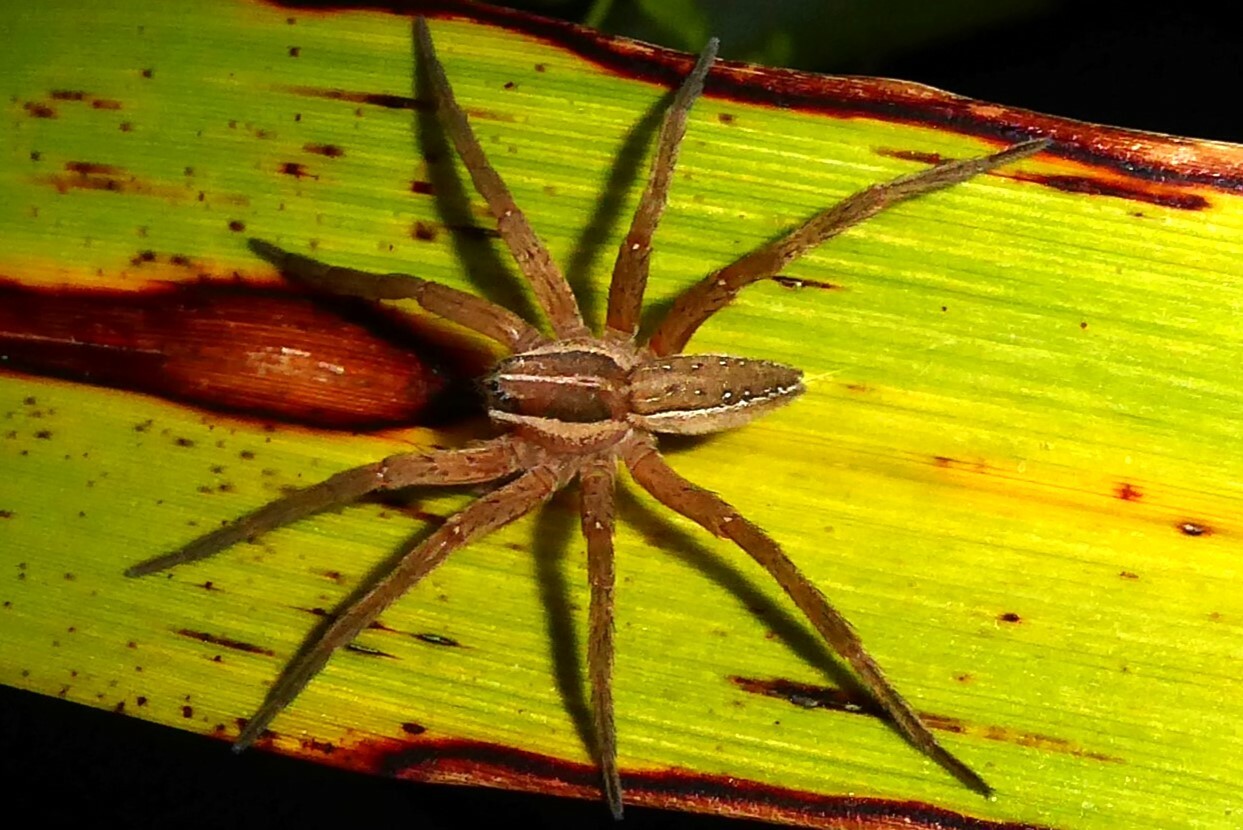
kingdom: Animalia
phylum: Arthropoda
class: Arachnida
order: Araneae
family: Pisauridae
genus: Dolomedes
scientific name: Dolomedes minor
